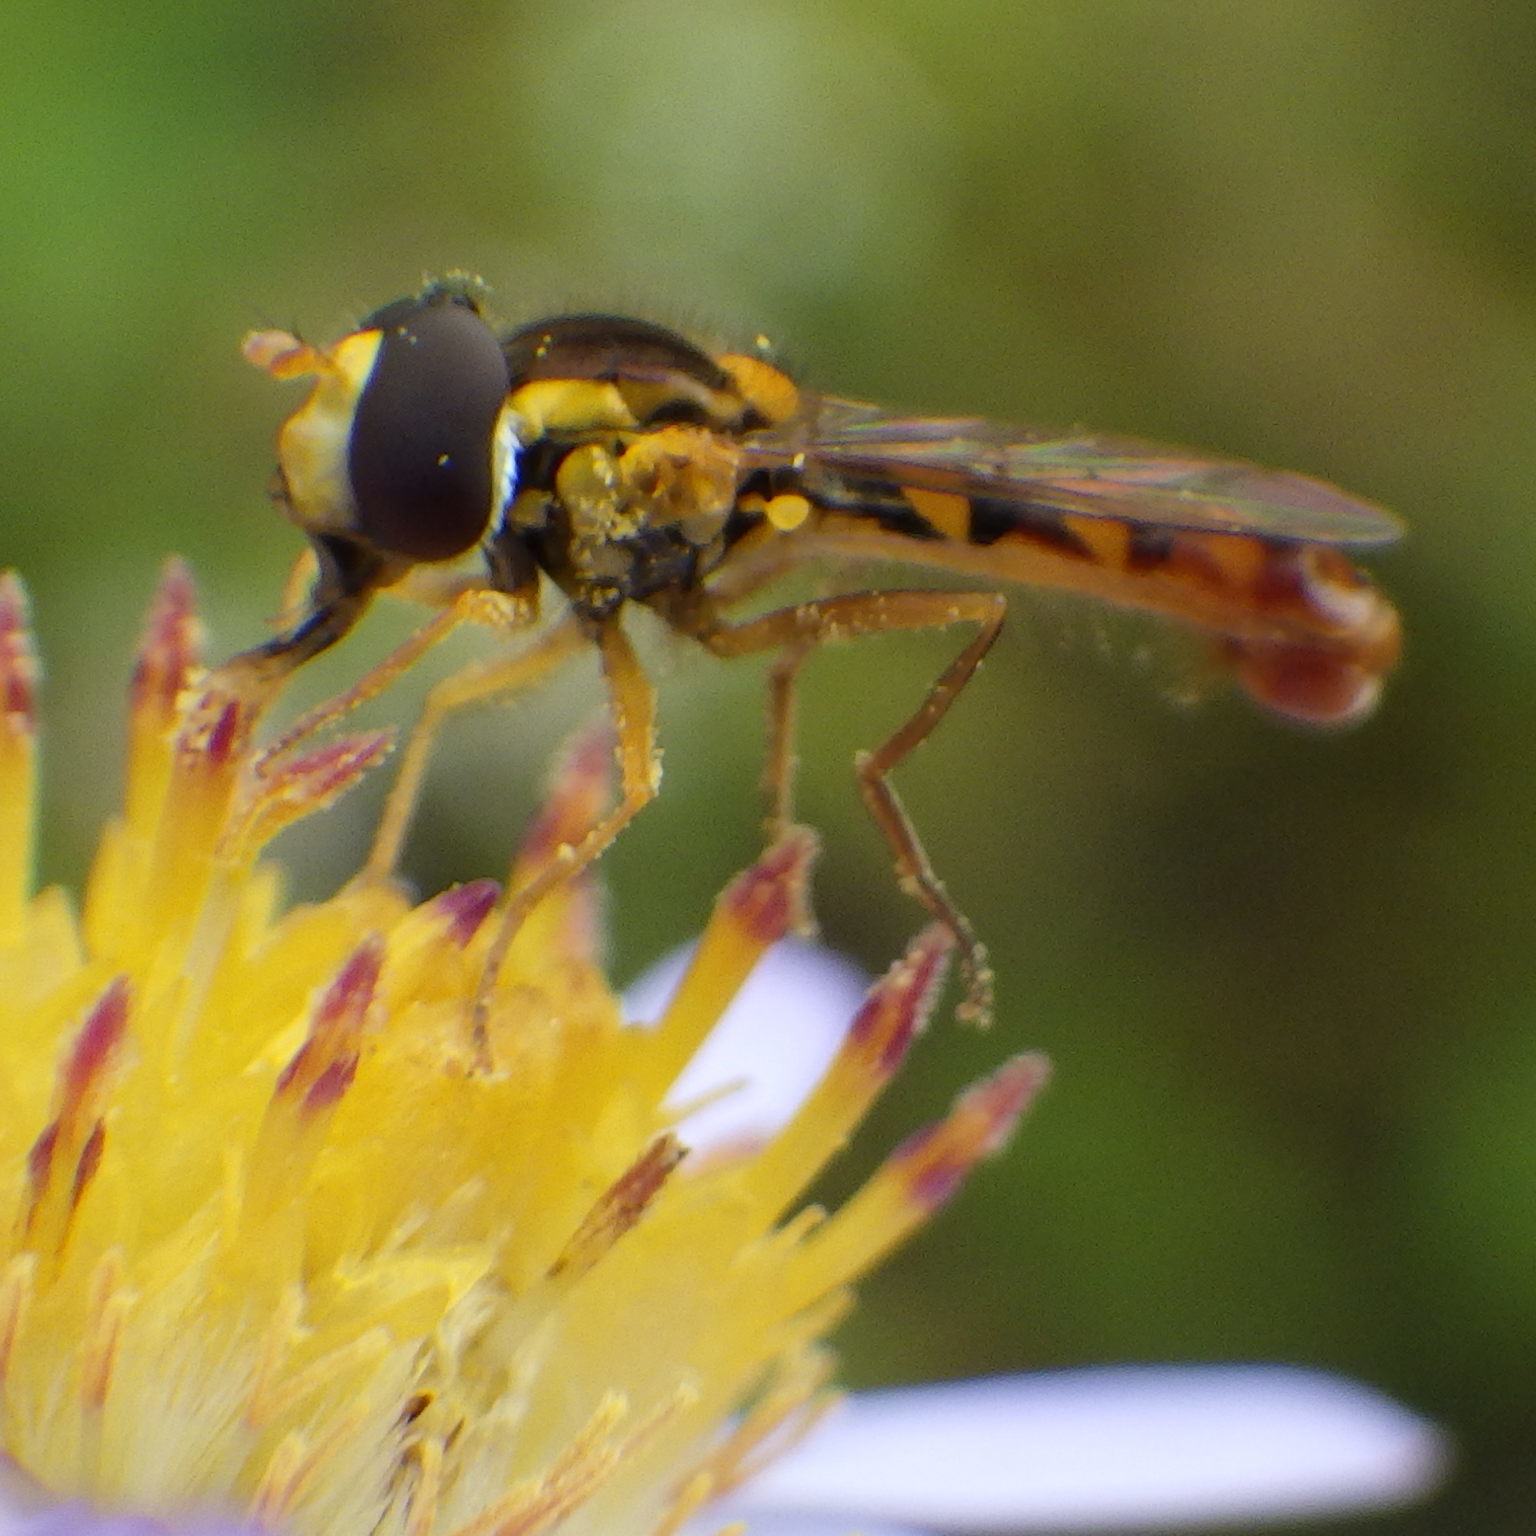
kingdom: Animalia
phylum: Arthropoda
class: Insecta
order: Diptera
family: Syrphidae
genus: Sphaerophoria
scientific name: Sphaerophoria philantha
